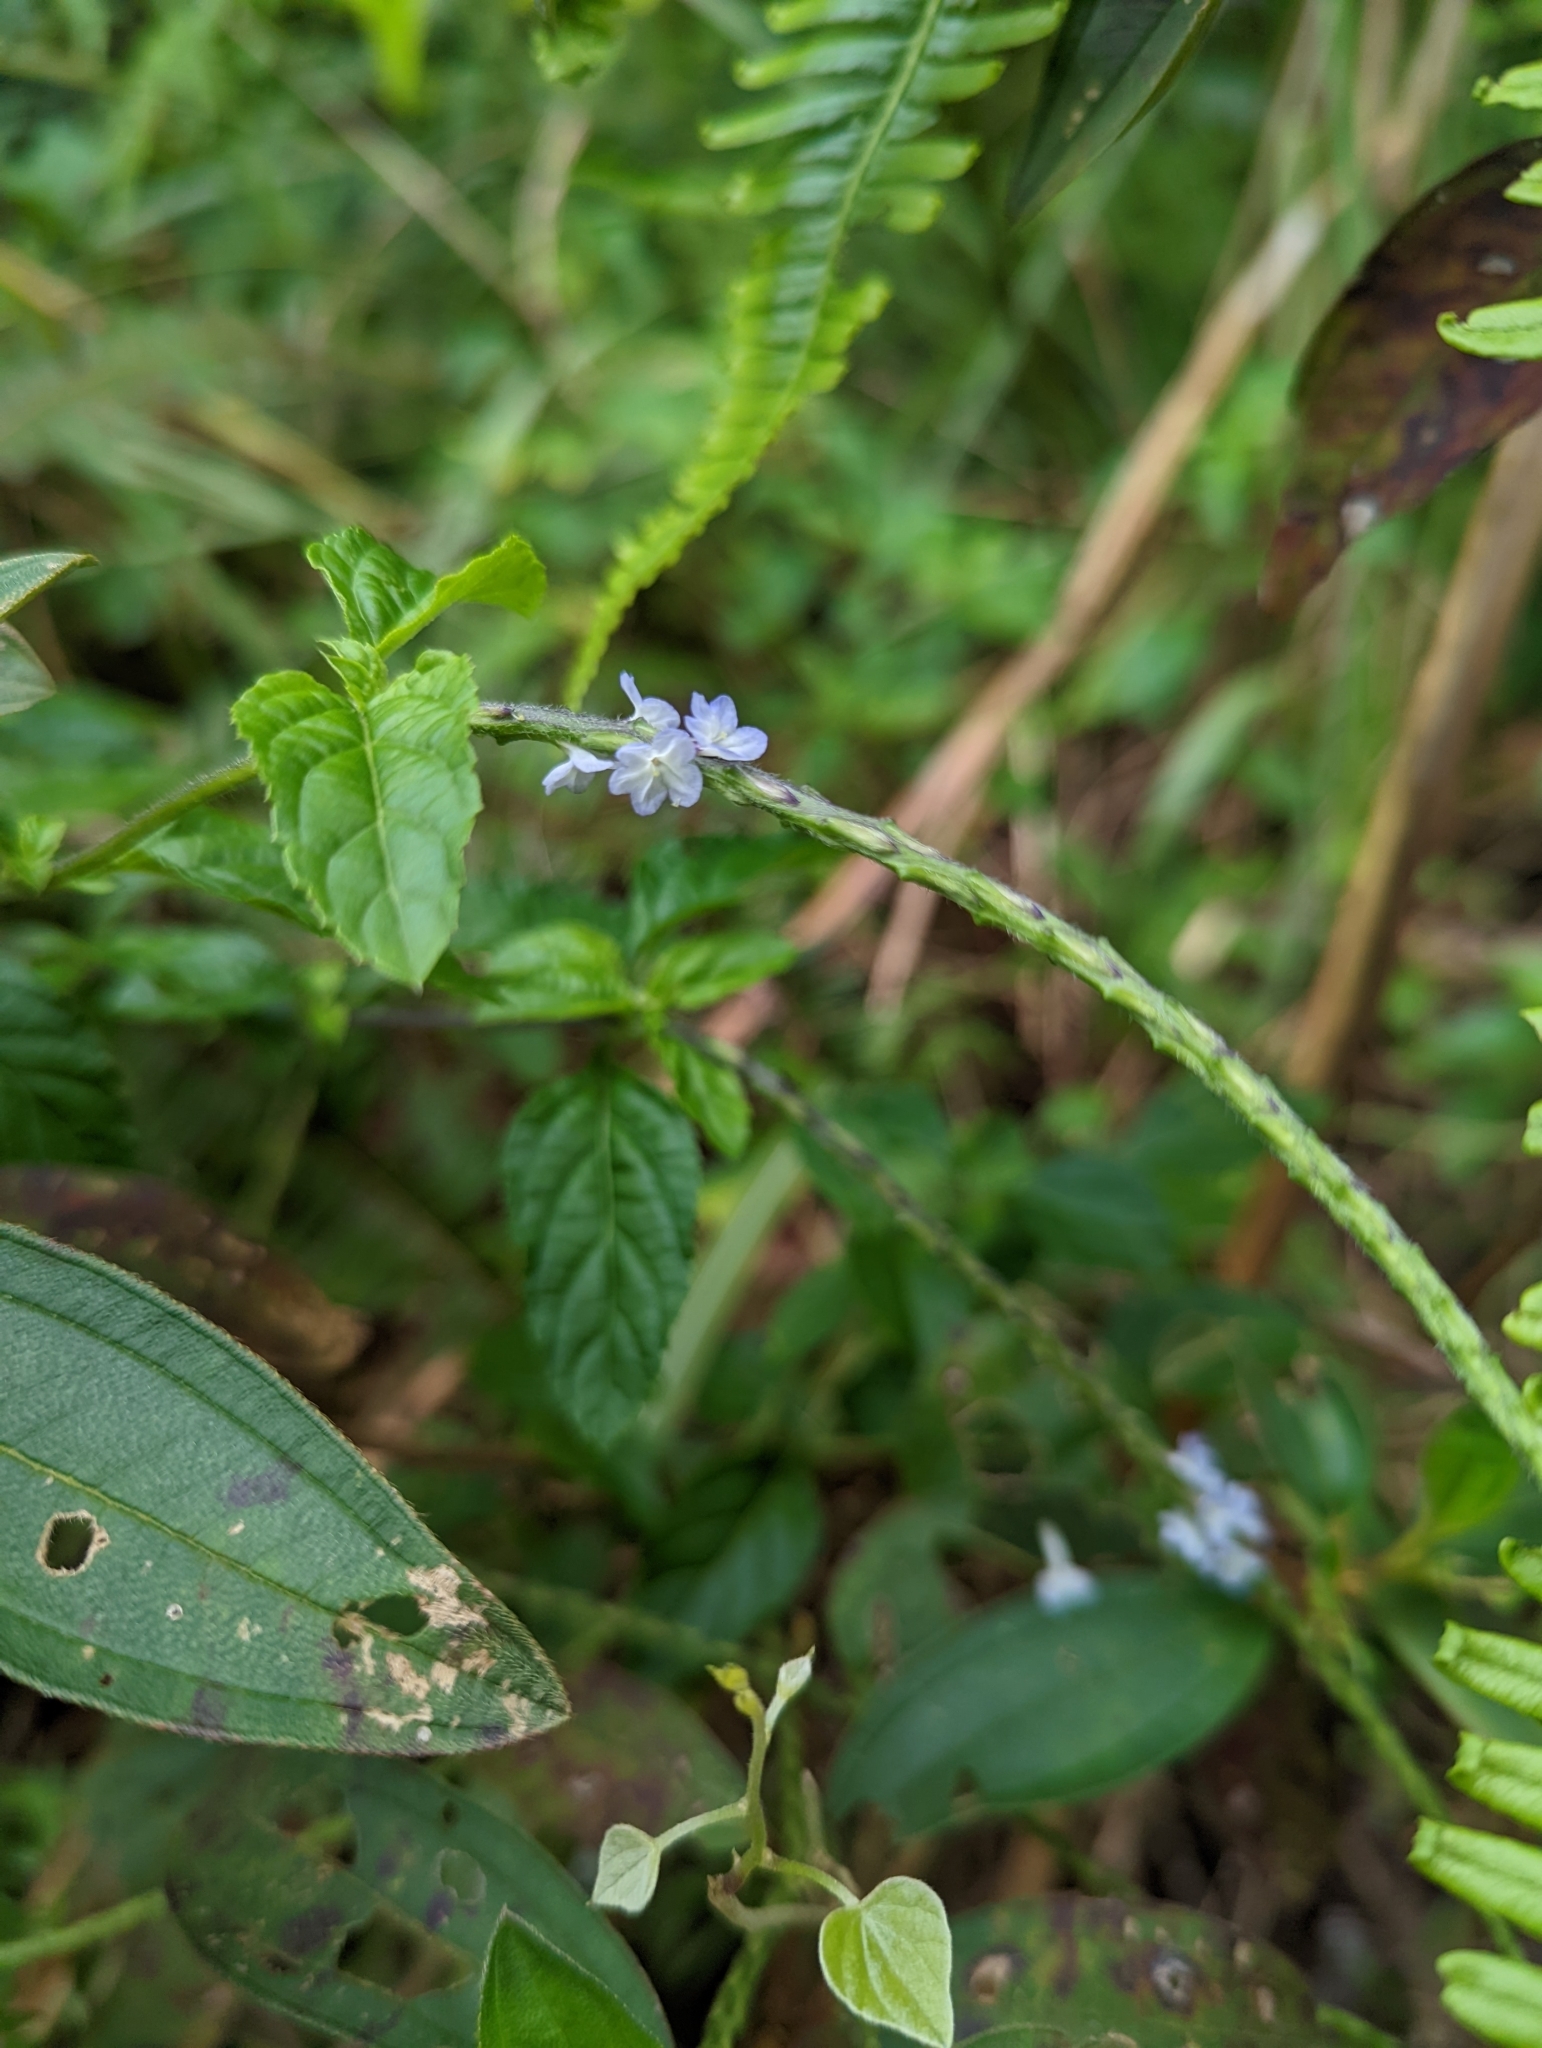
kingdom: Plantae
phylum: Tracheophyta
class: Magnoliopsida
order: Lamiales
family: Verbenaceae
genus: Stachytarpheta
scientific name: Stachytarpheta cayennensis
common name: Cayenne porterweed
